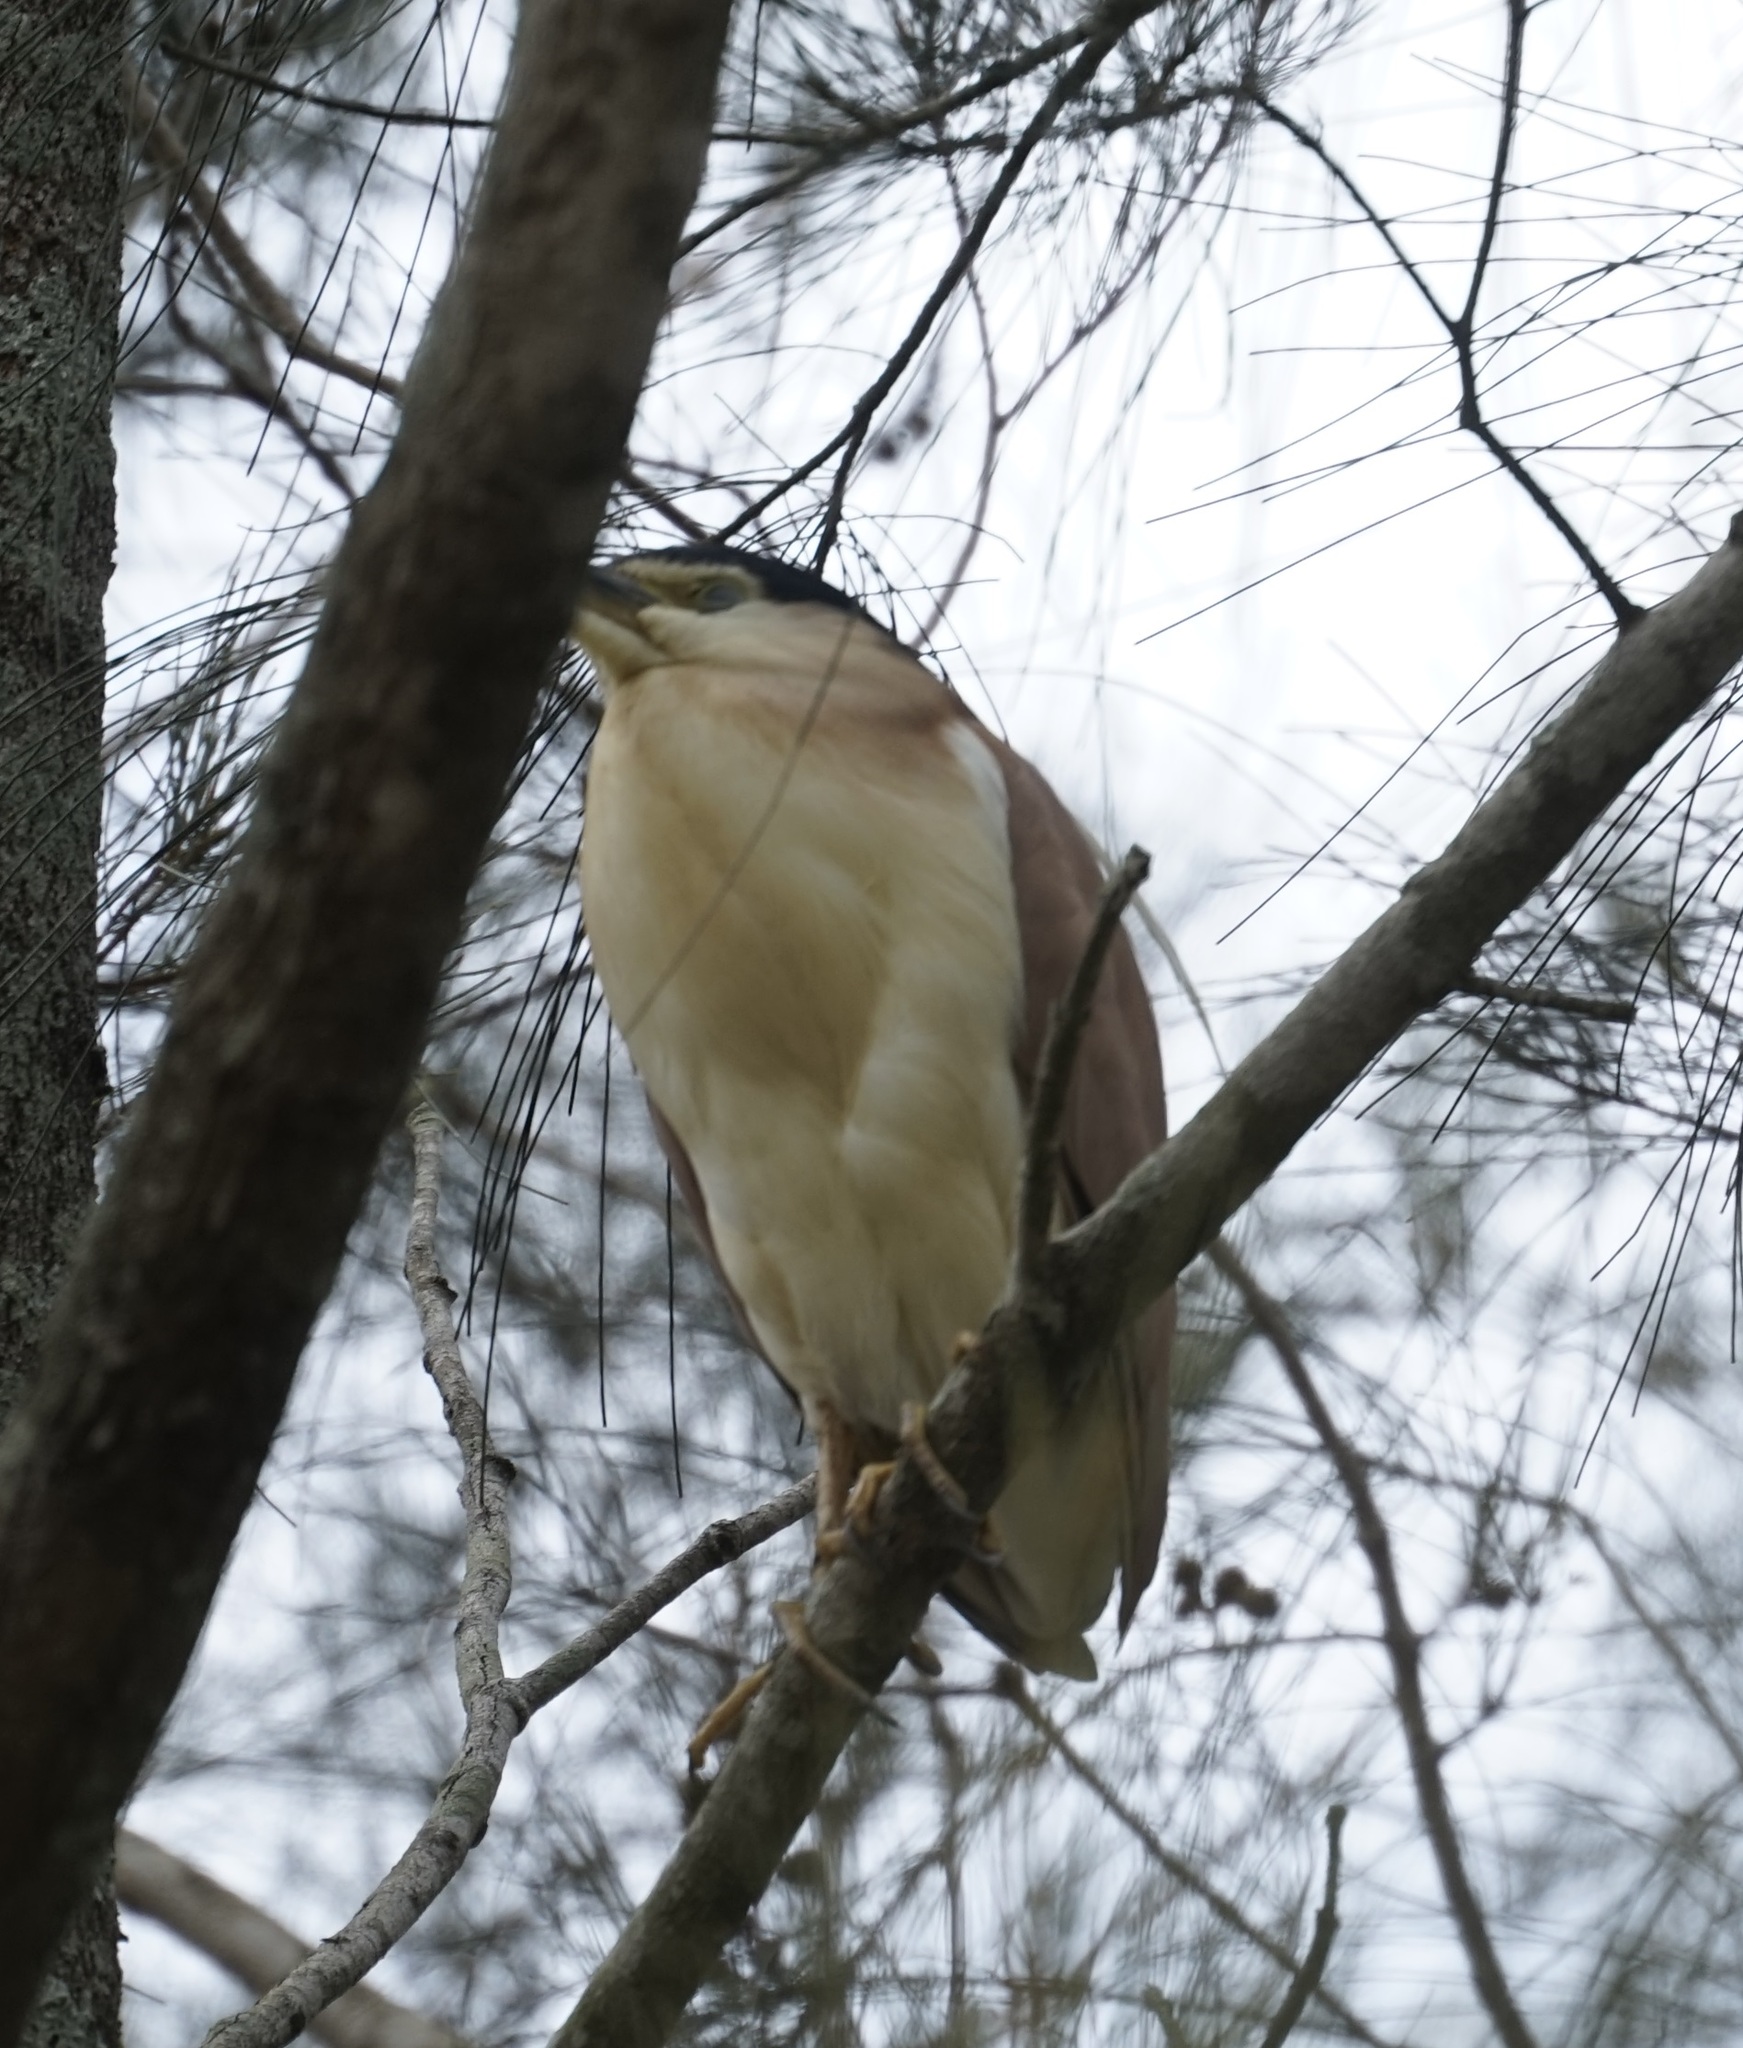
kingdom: Animalia
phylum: Chordata
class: Aves
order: Pelecaniformes
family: Ardeidae
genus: Nycticorax
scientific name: Nycticorax caledonicus
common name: Rufous night-heron
